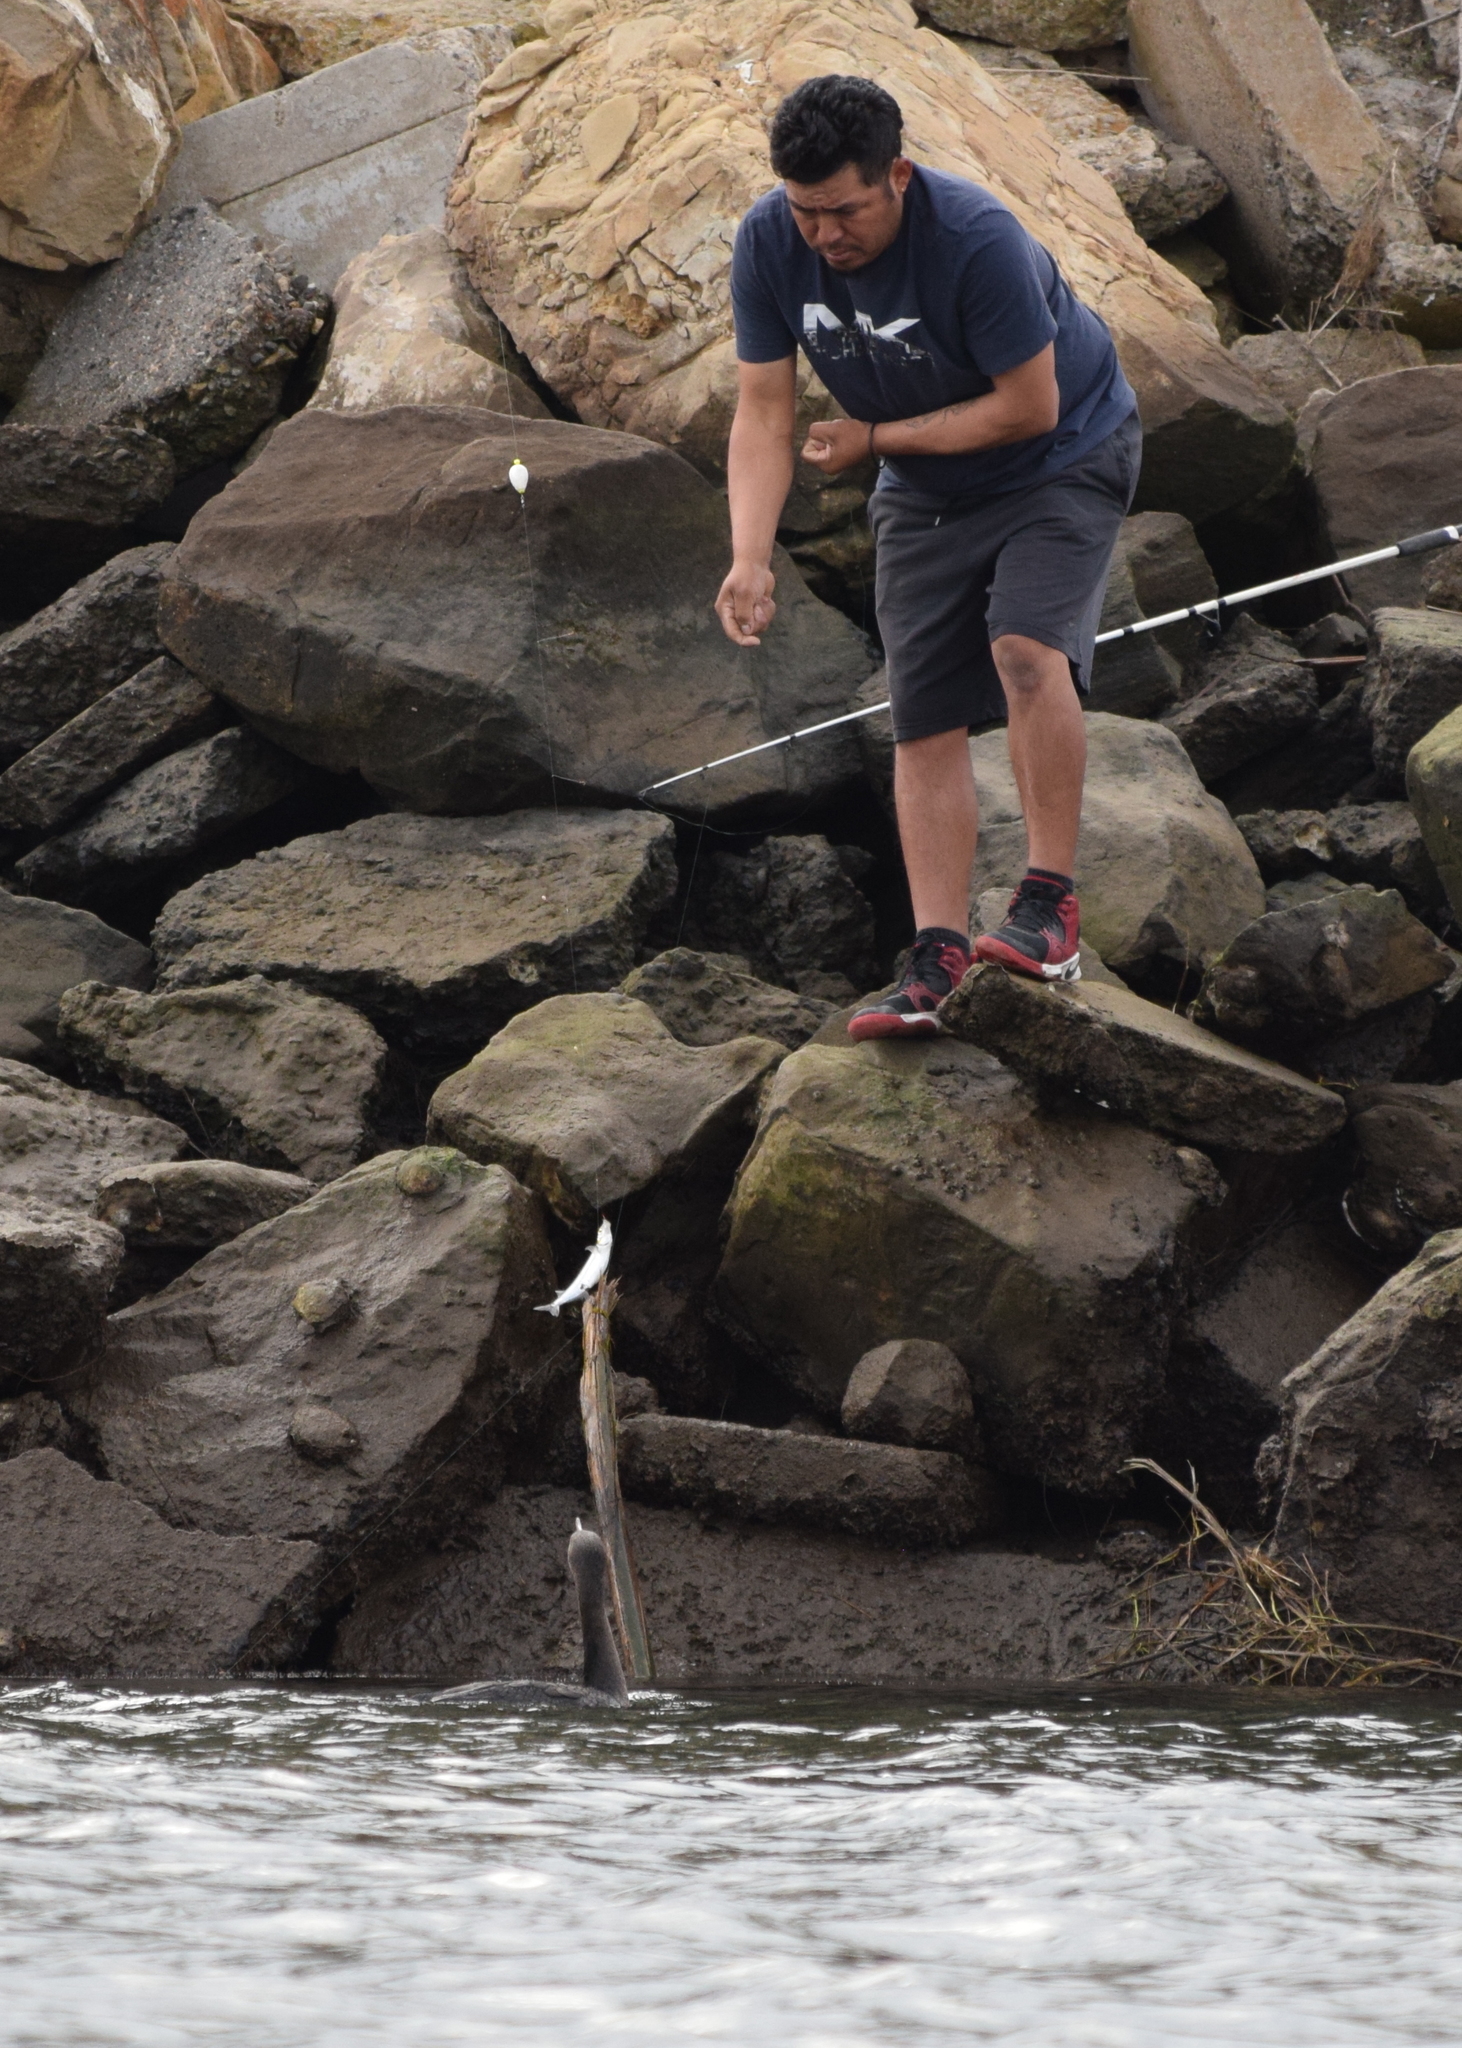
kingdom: Animalia
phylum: Chordata
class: Aves
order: Suliformes
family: Phalacrocoracidae
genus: Phalacrocorax
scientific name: Phalacrocorax auritus
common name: Double-crested cormorant
